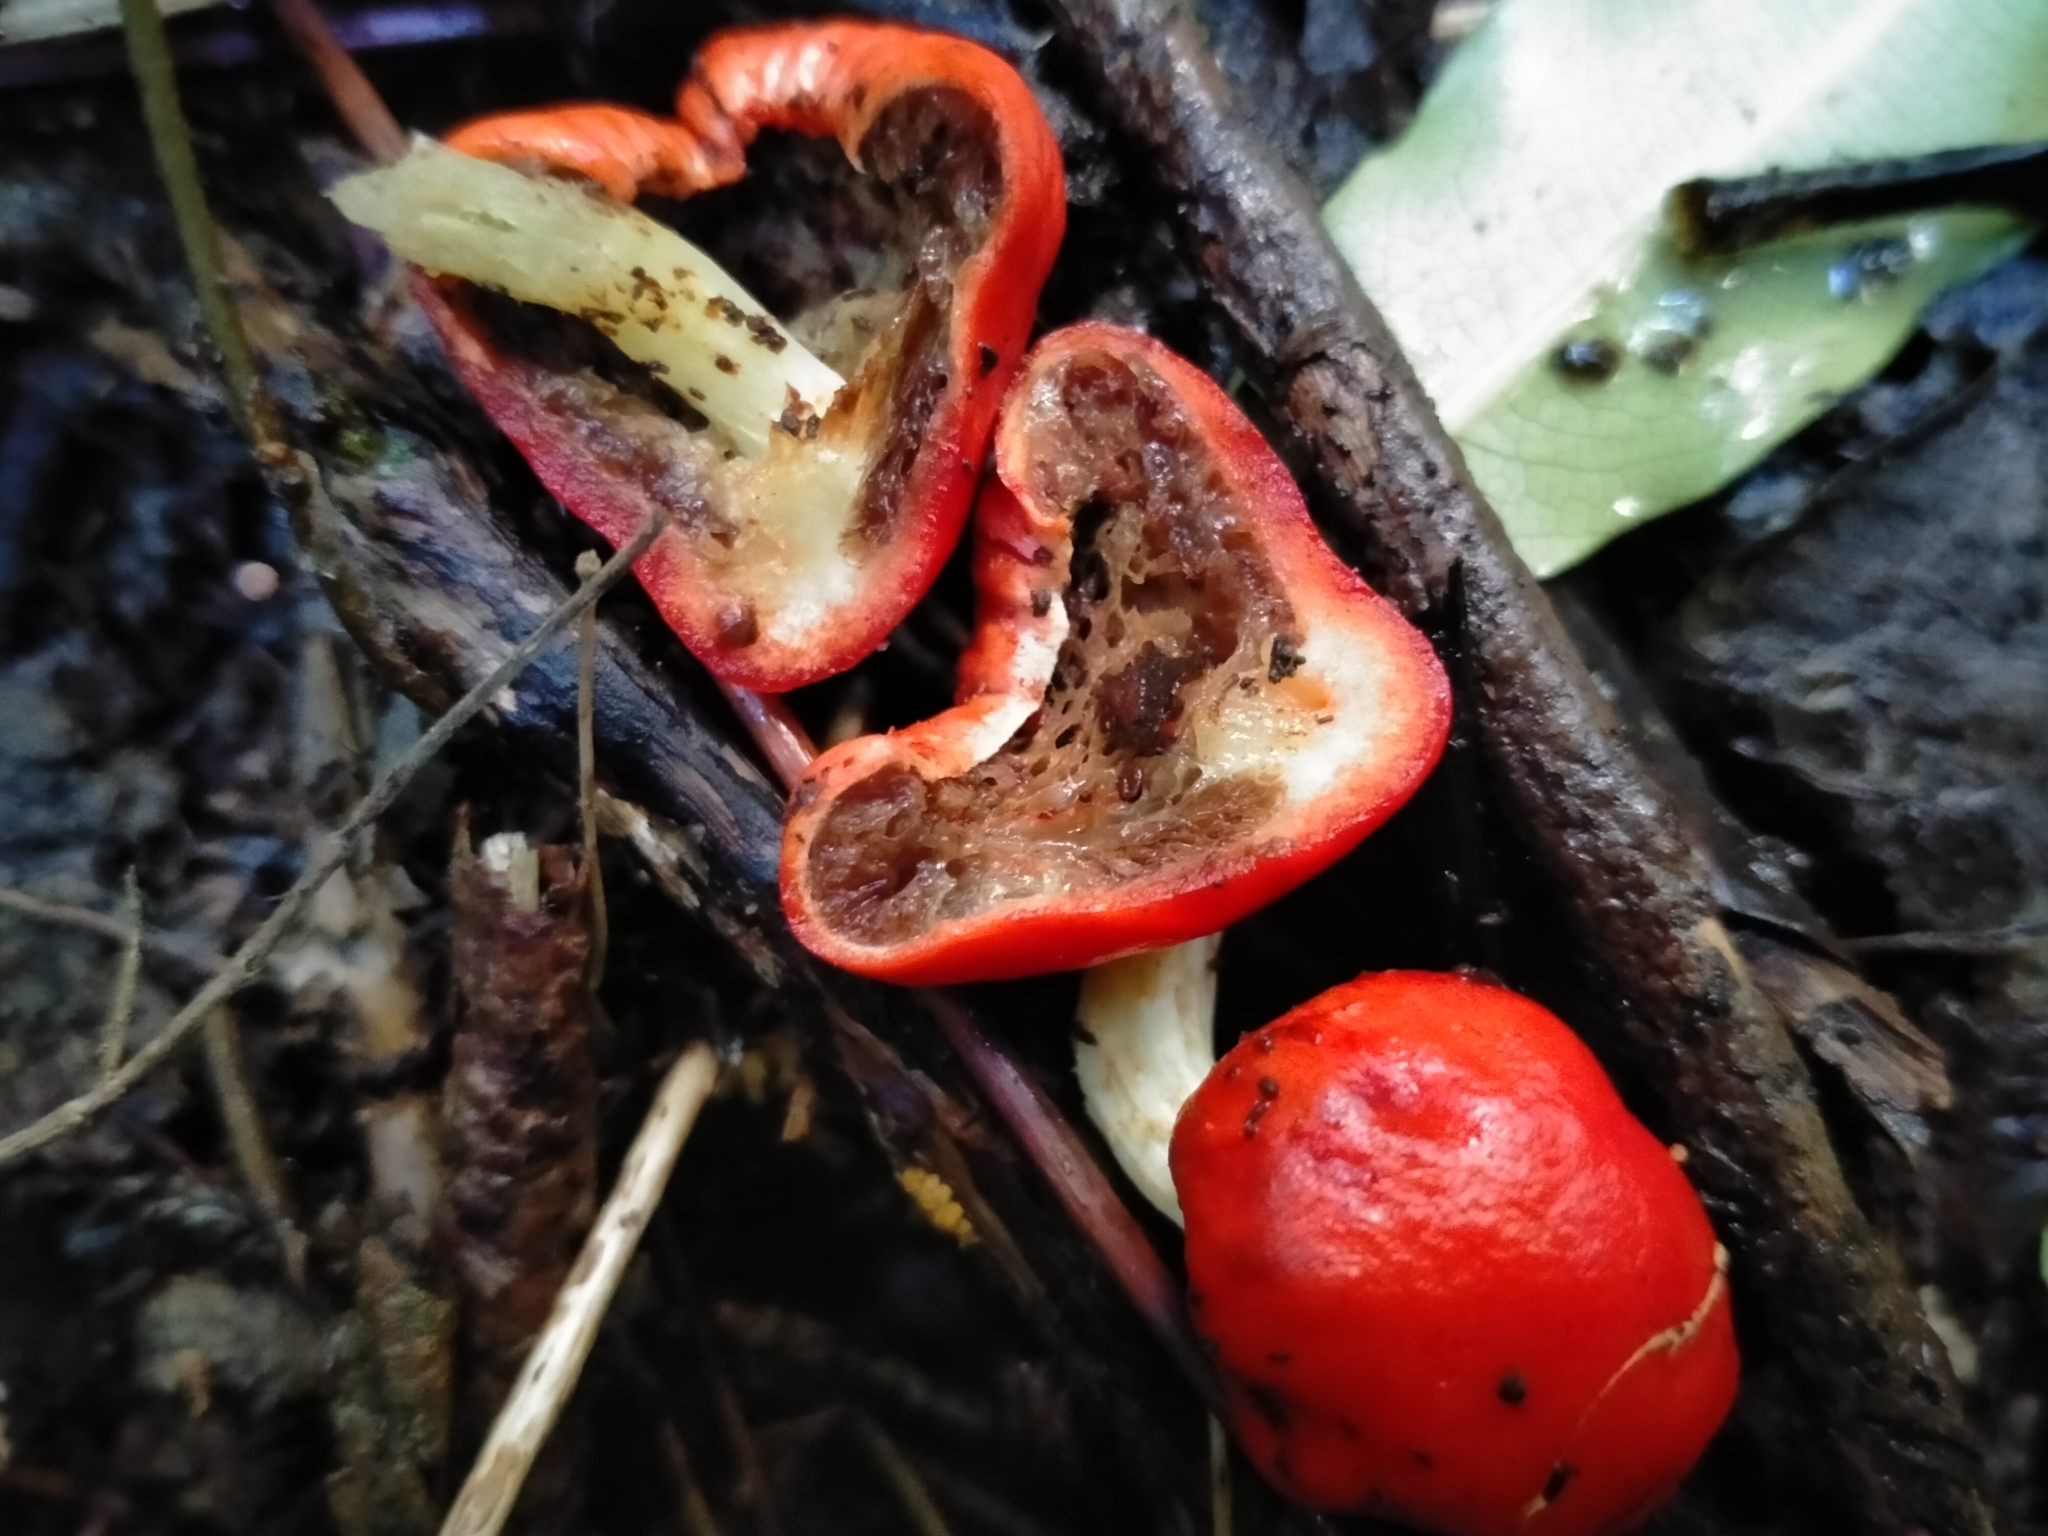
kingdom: Fungi
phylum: Basidiomycota
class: Agaricomycetes
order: Agaricales
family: Strophariaceae
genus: Leratiomyces
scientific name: Leratiomyces erythrocephalus
